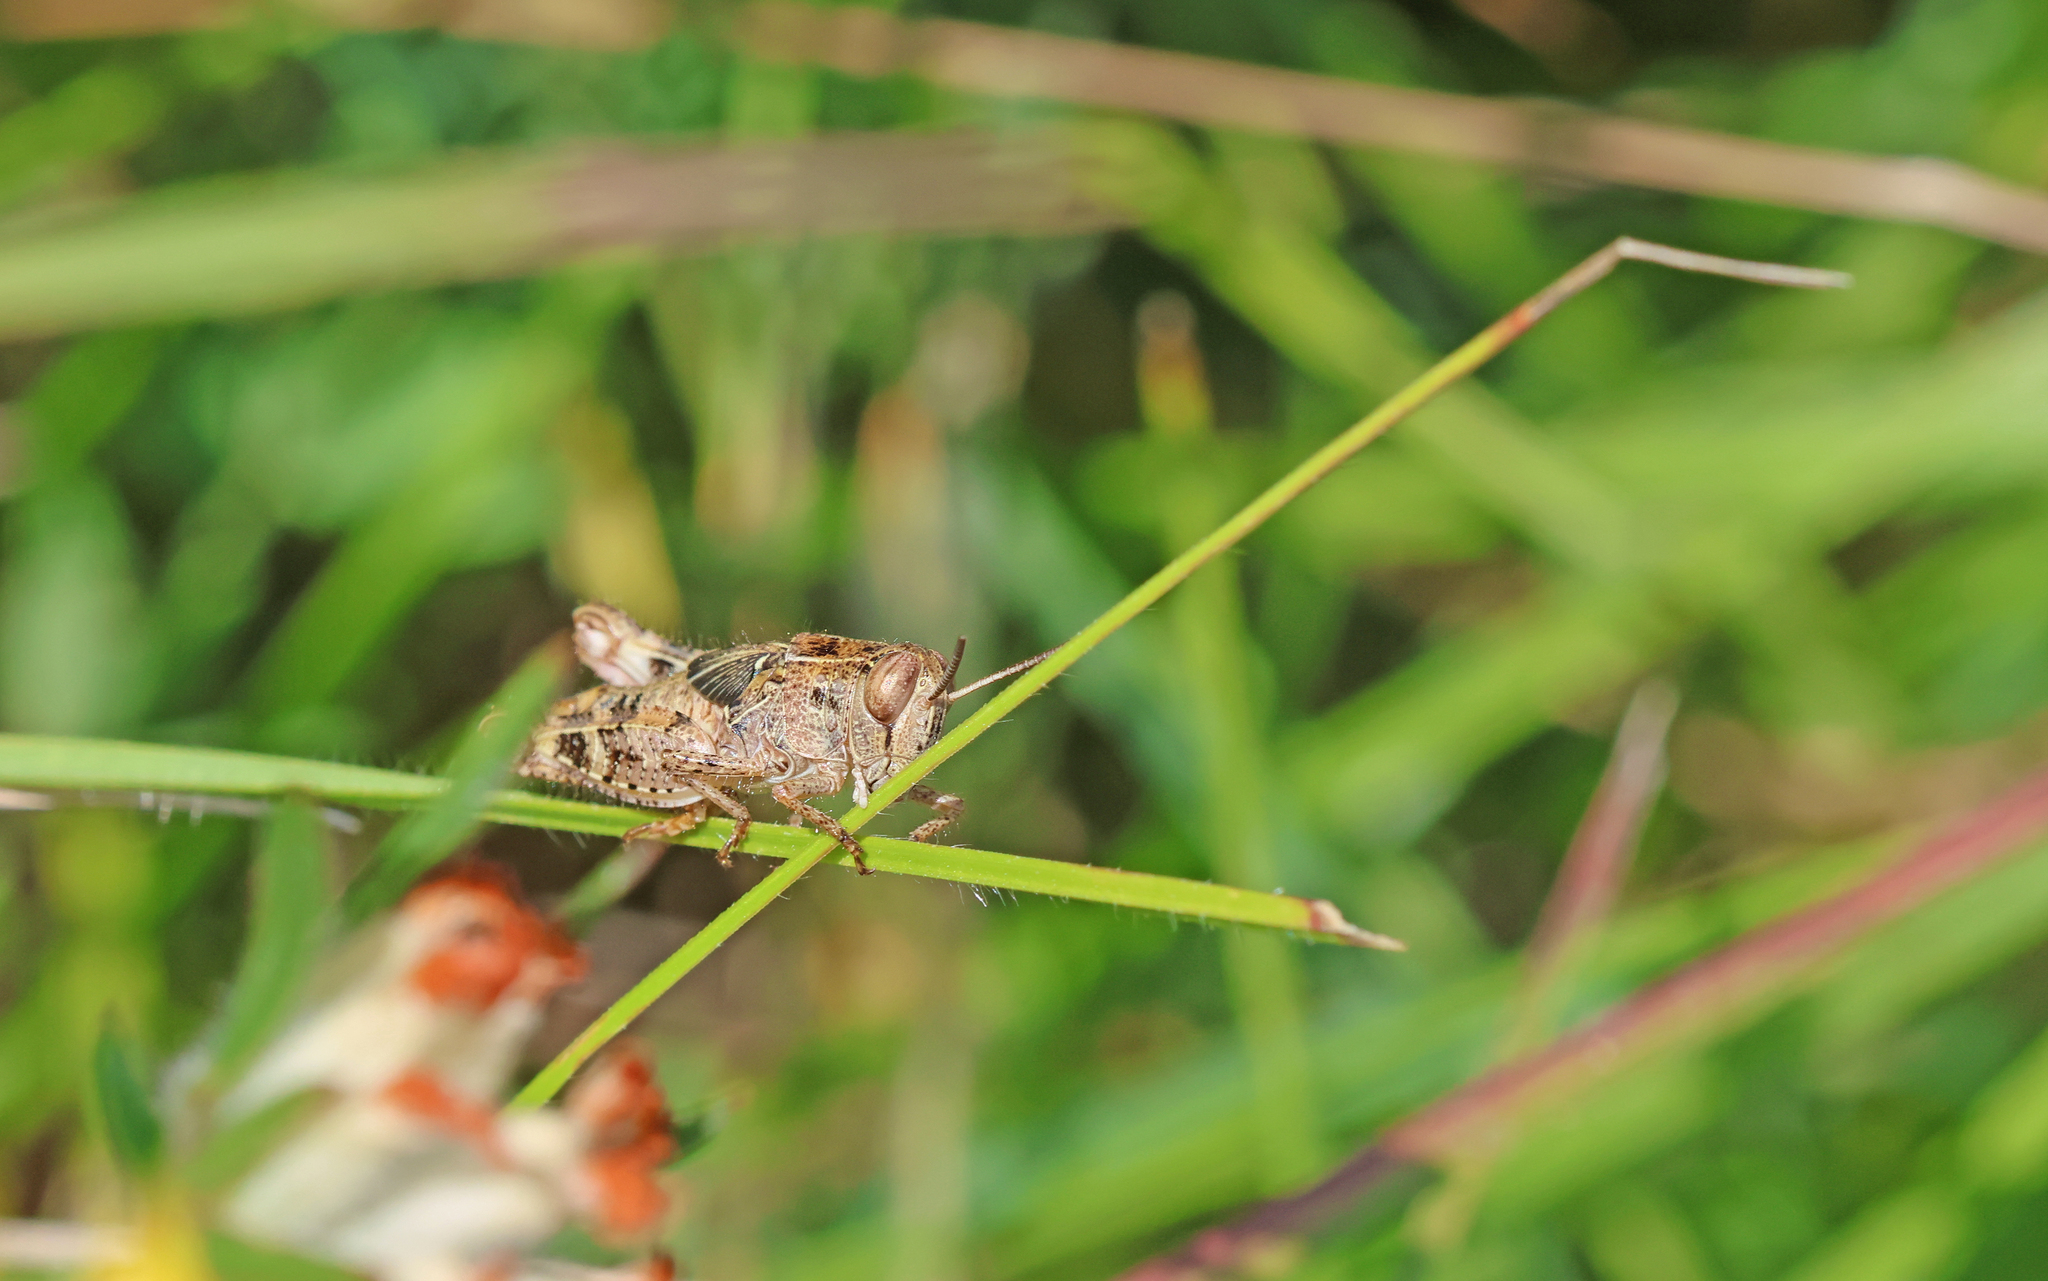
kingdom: Animalia
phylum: Arthropoda
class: Insecta
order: Orthoptera
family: Acrididae
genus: Calliptamus
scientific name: Calliptamus italicus
